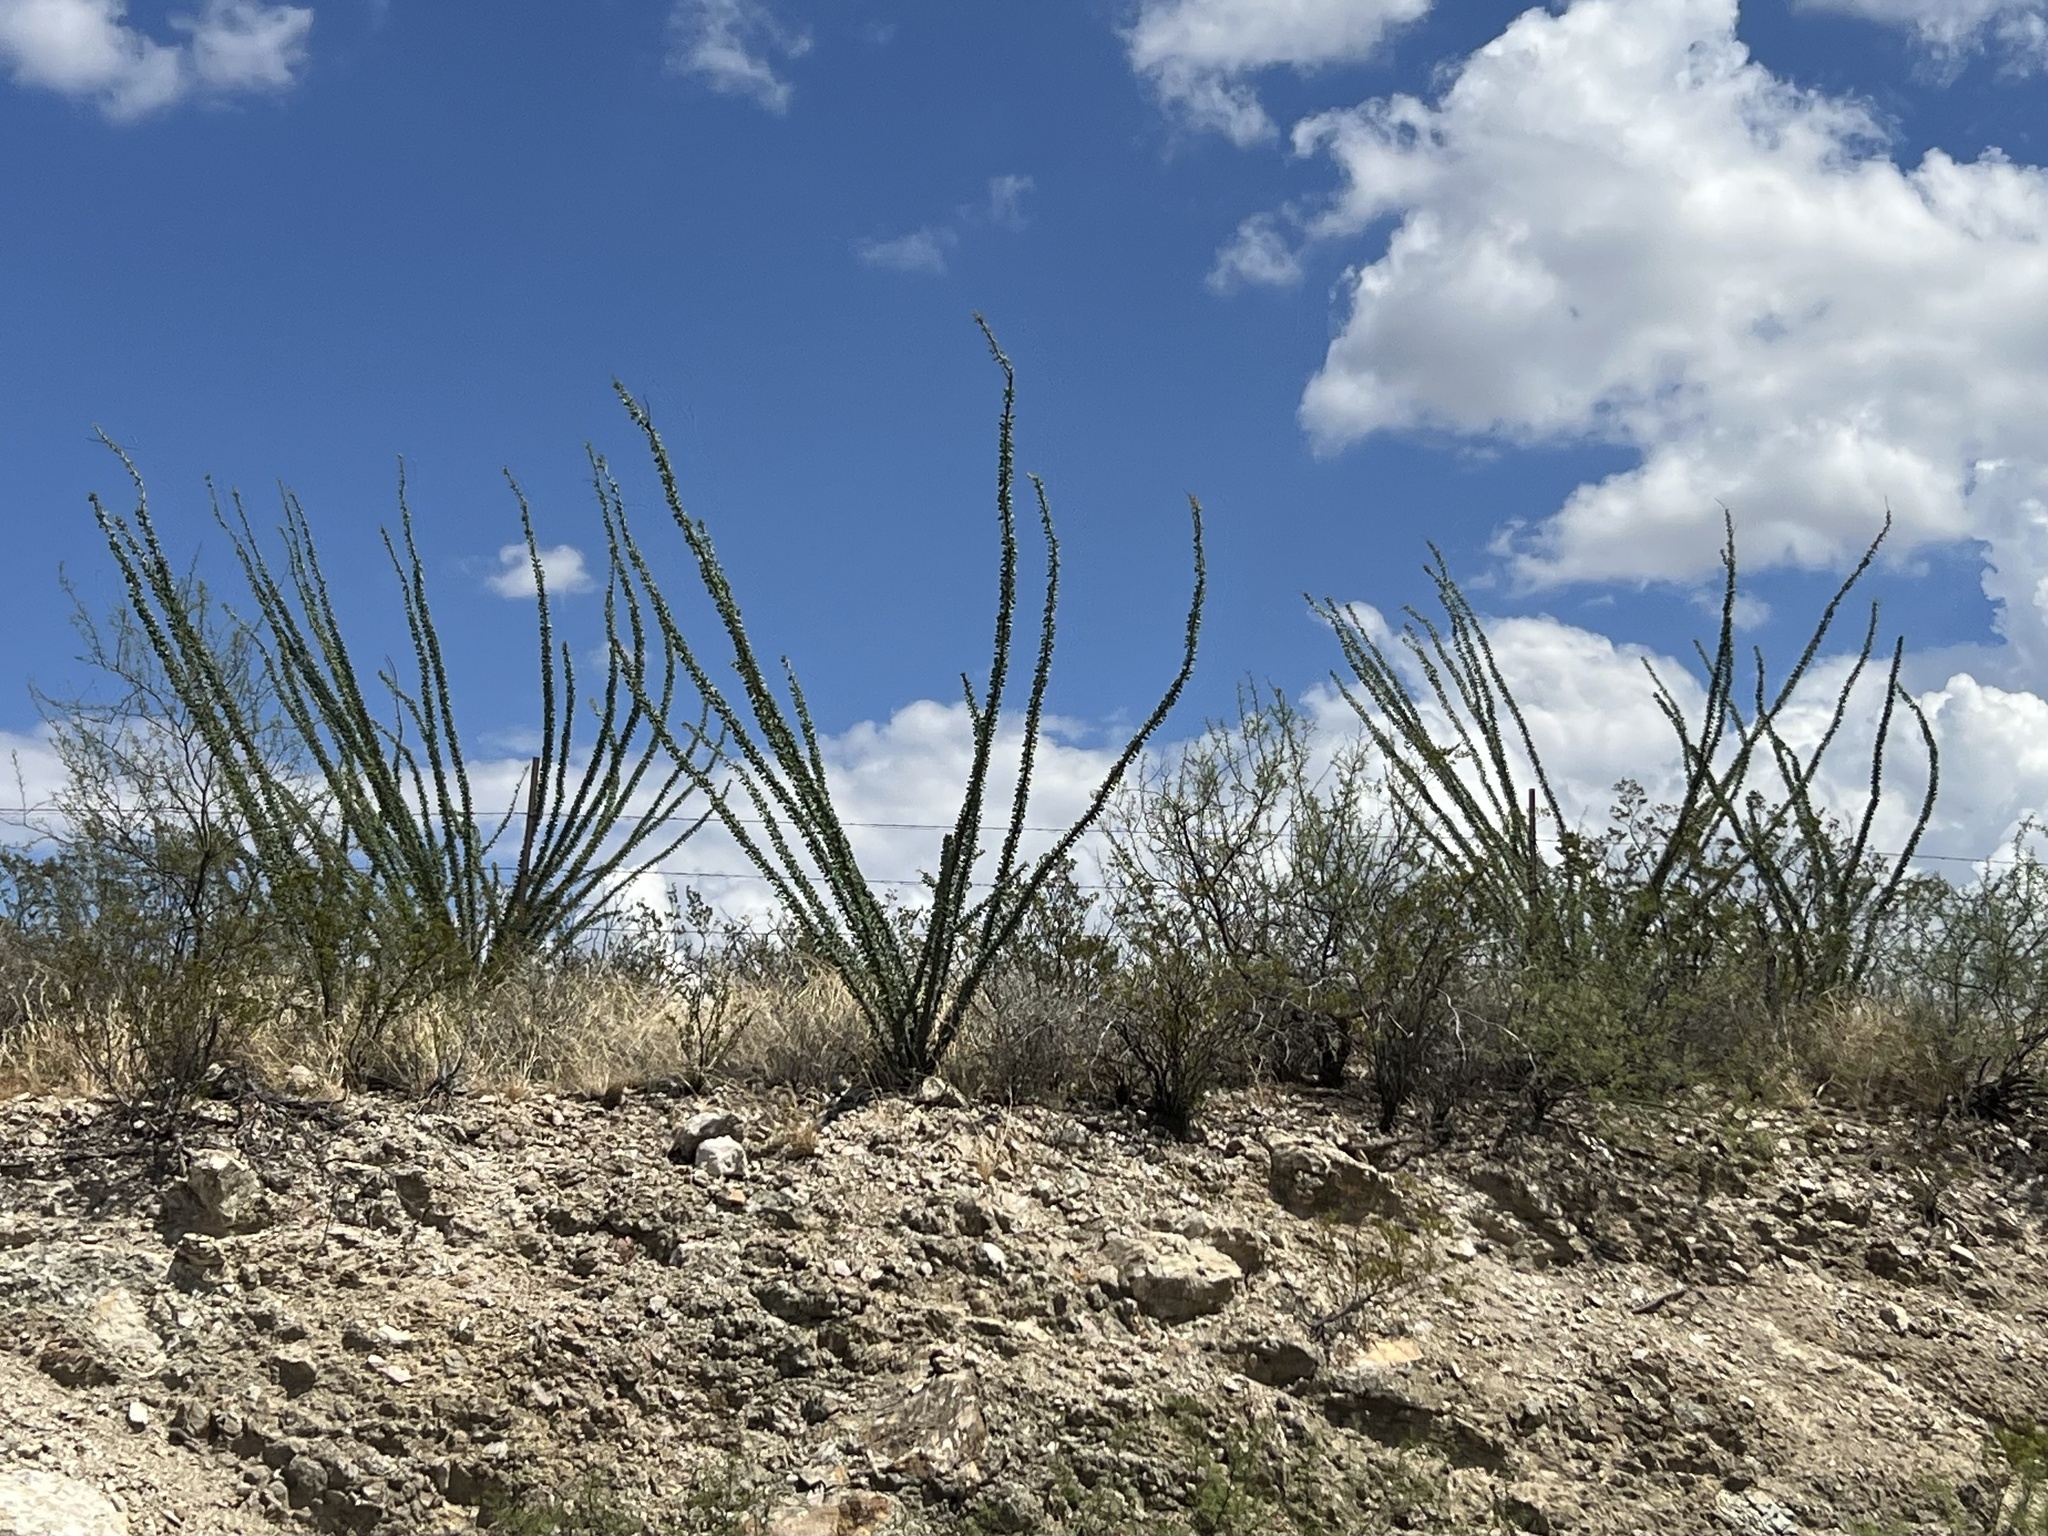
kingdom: Plantae
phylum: Tracheophyta
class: Magnoliopsida
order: Ericales
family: Fouquieriaceae
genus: Fouquieria
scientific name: Fouquieria splendens
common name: Vine-cactus
